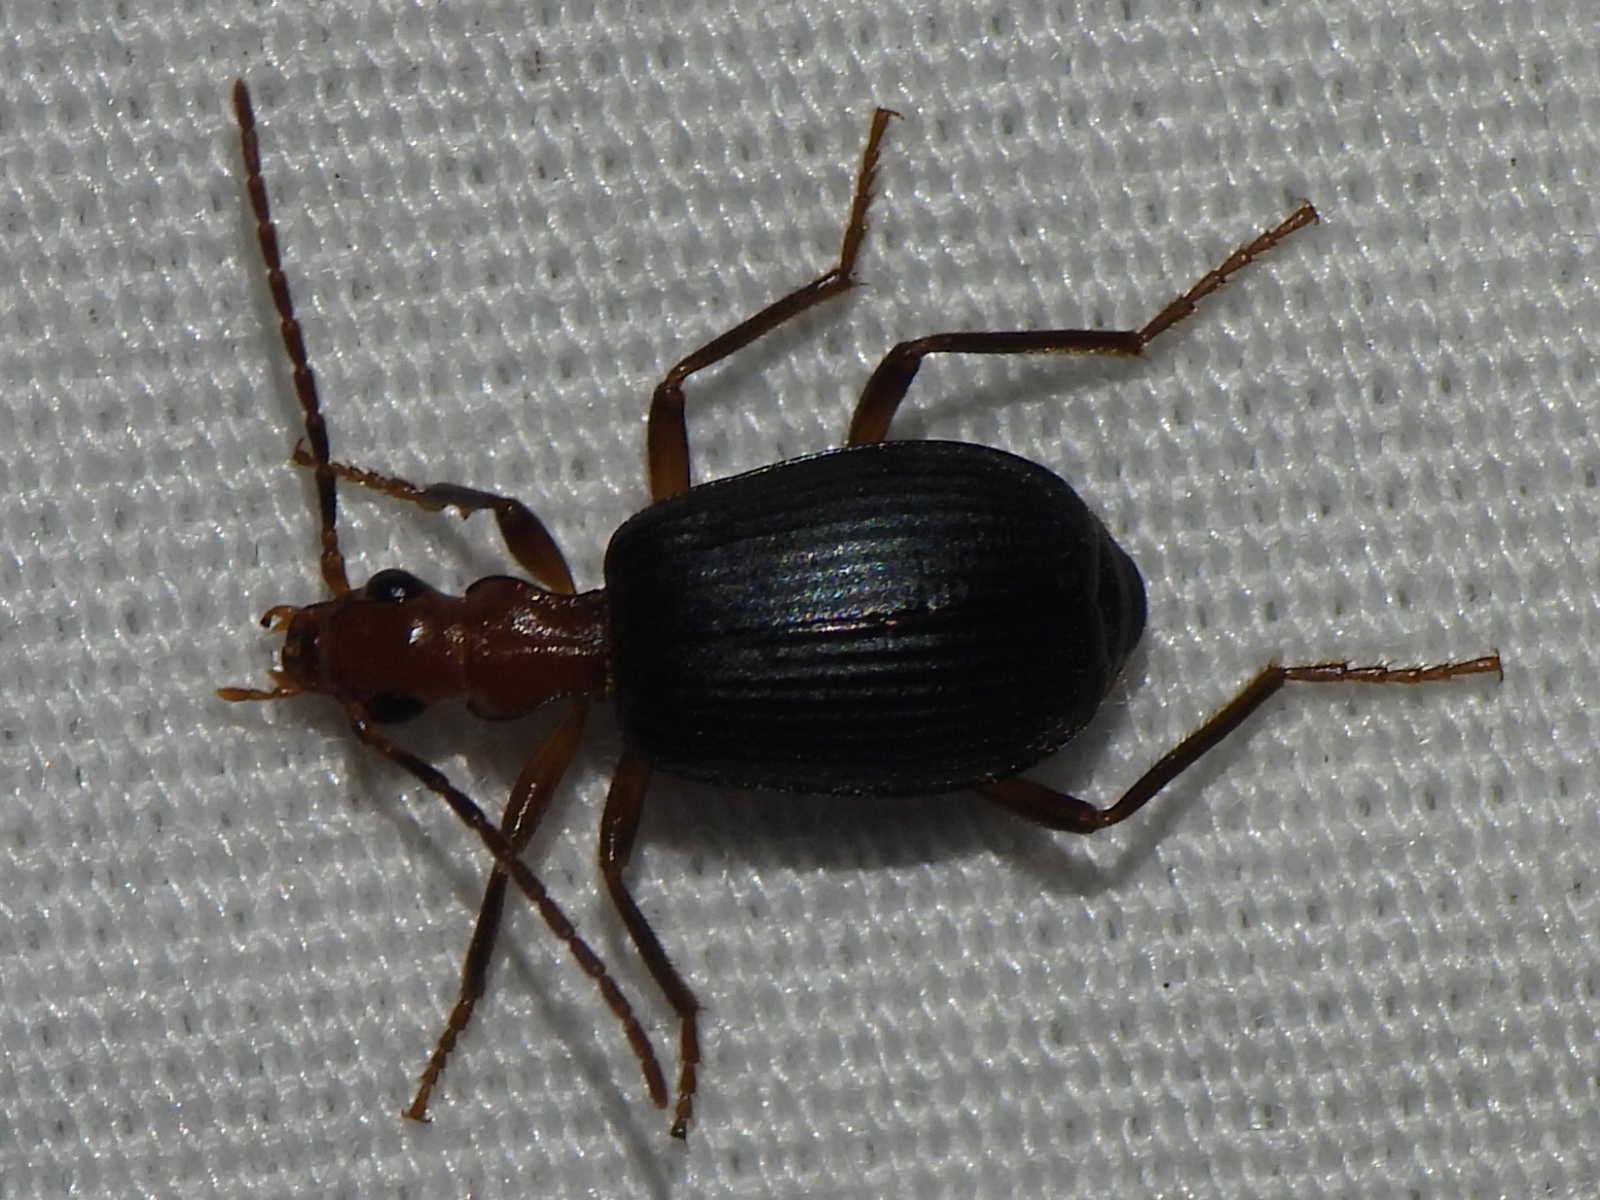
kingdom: Animalia
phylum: Arthropoda
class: Insecta
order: Coleoptera
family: Carabidae
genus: Brachinus
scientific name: Brachinus tenuicollis
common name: Narrow-necked little bombardier beetle
